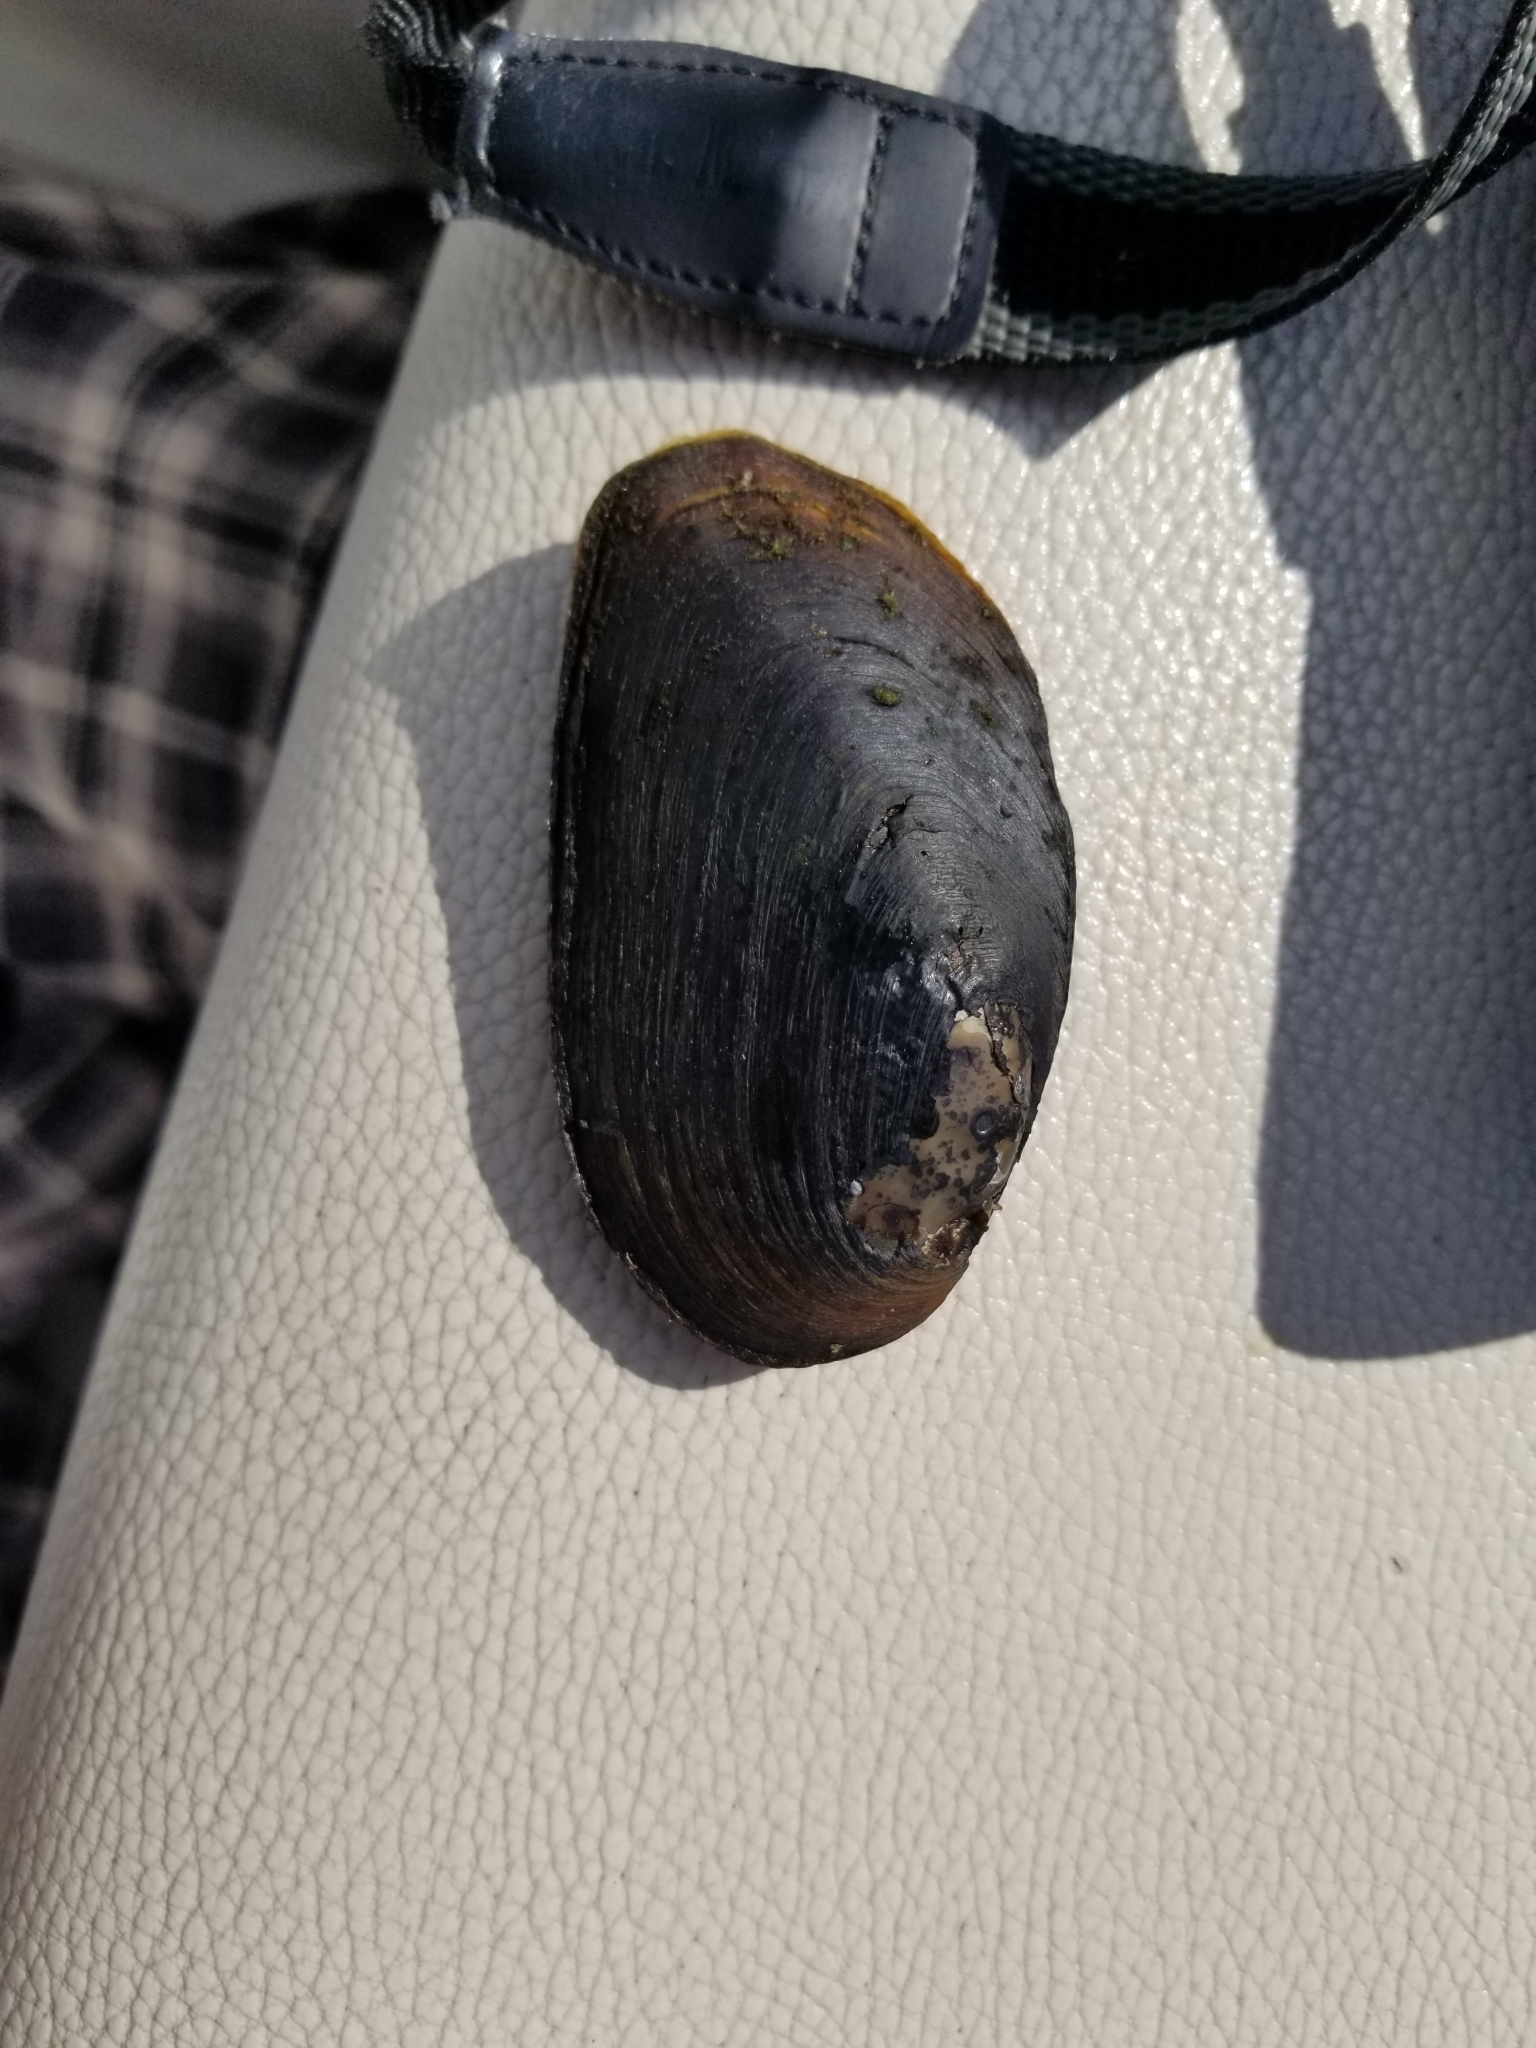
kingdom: Animalia
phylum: Mollusca
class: Bivalvia
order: Unionida
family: Unionidae
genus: Elliptio
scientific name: Elliptio complanata
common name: Eastern elliptio
